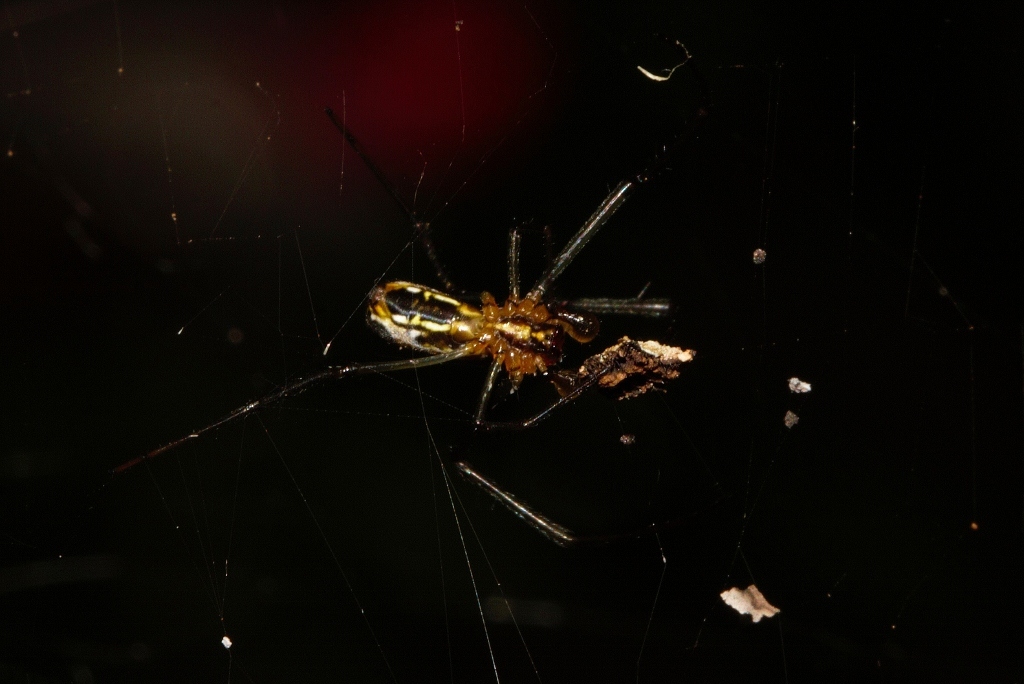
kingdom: Animalia
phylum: Arthropoda
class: Arachnida
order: Araneae
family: Araneidae
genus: Trichonephila
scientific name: Trichonephila fenestrata
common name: Hairy golden orb weaver
